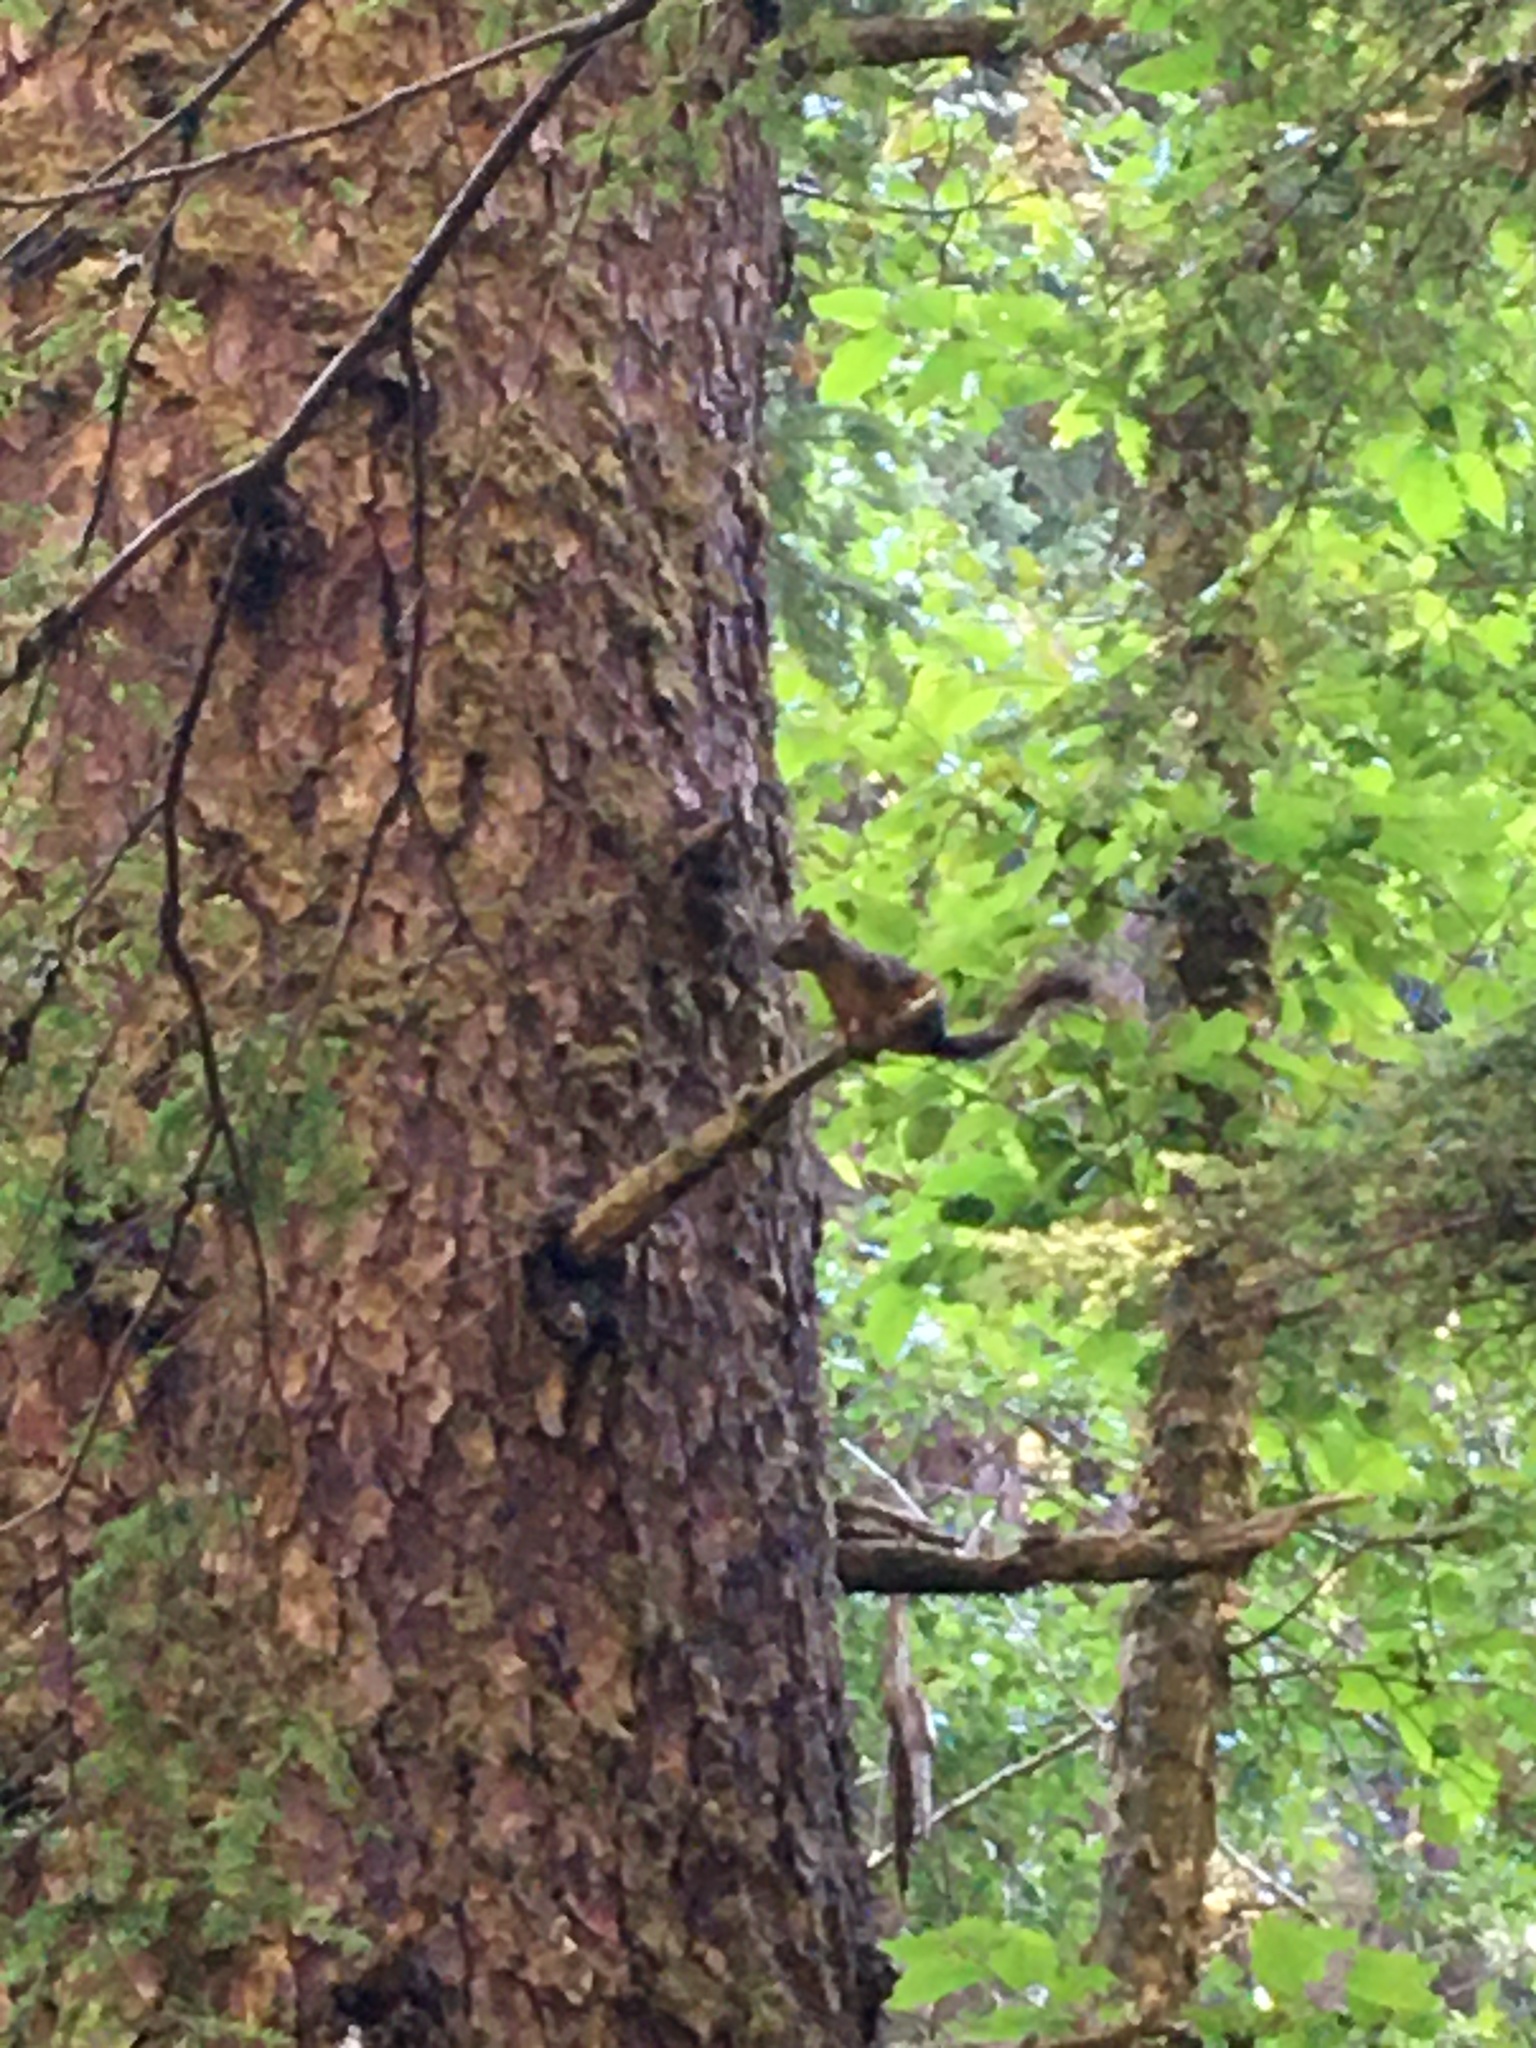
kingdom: Animalia
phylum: Chordata
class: Mammalia
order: Rodentia
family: Sciuridae
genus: Tamiasciurus
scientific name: Tamiasciurus douglasii
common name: Douglas's squirrel
